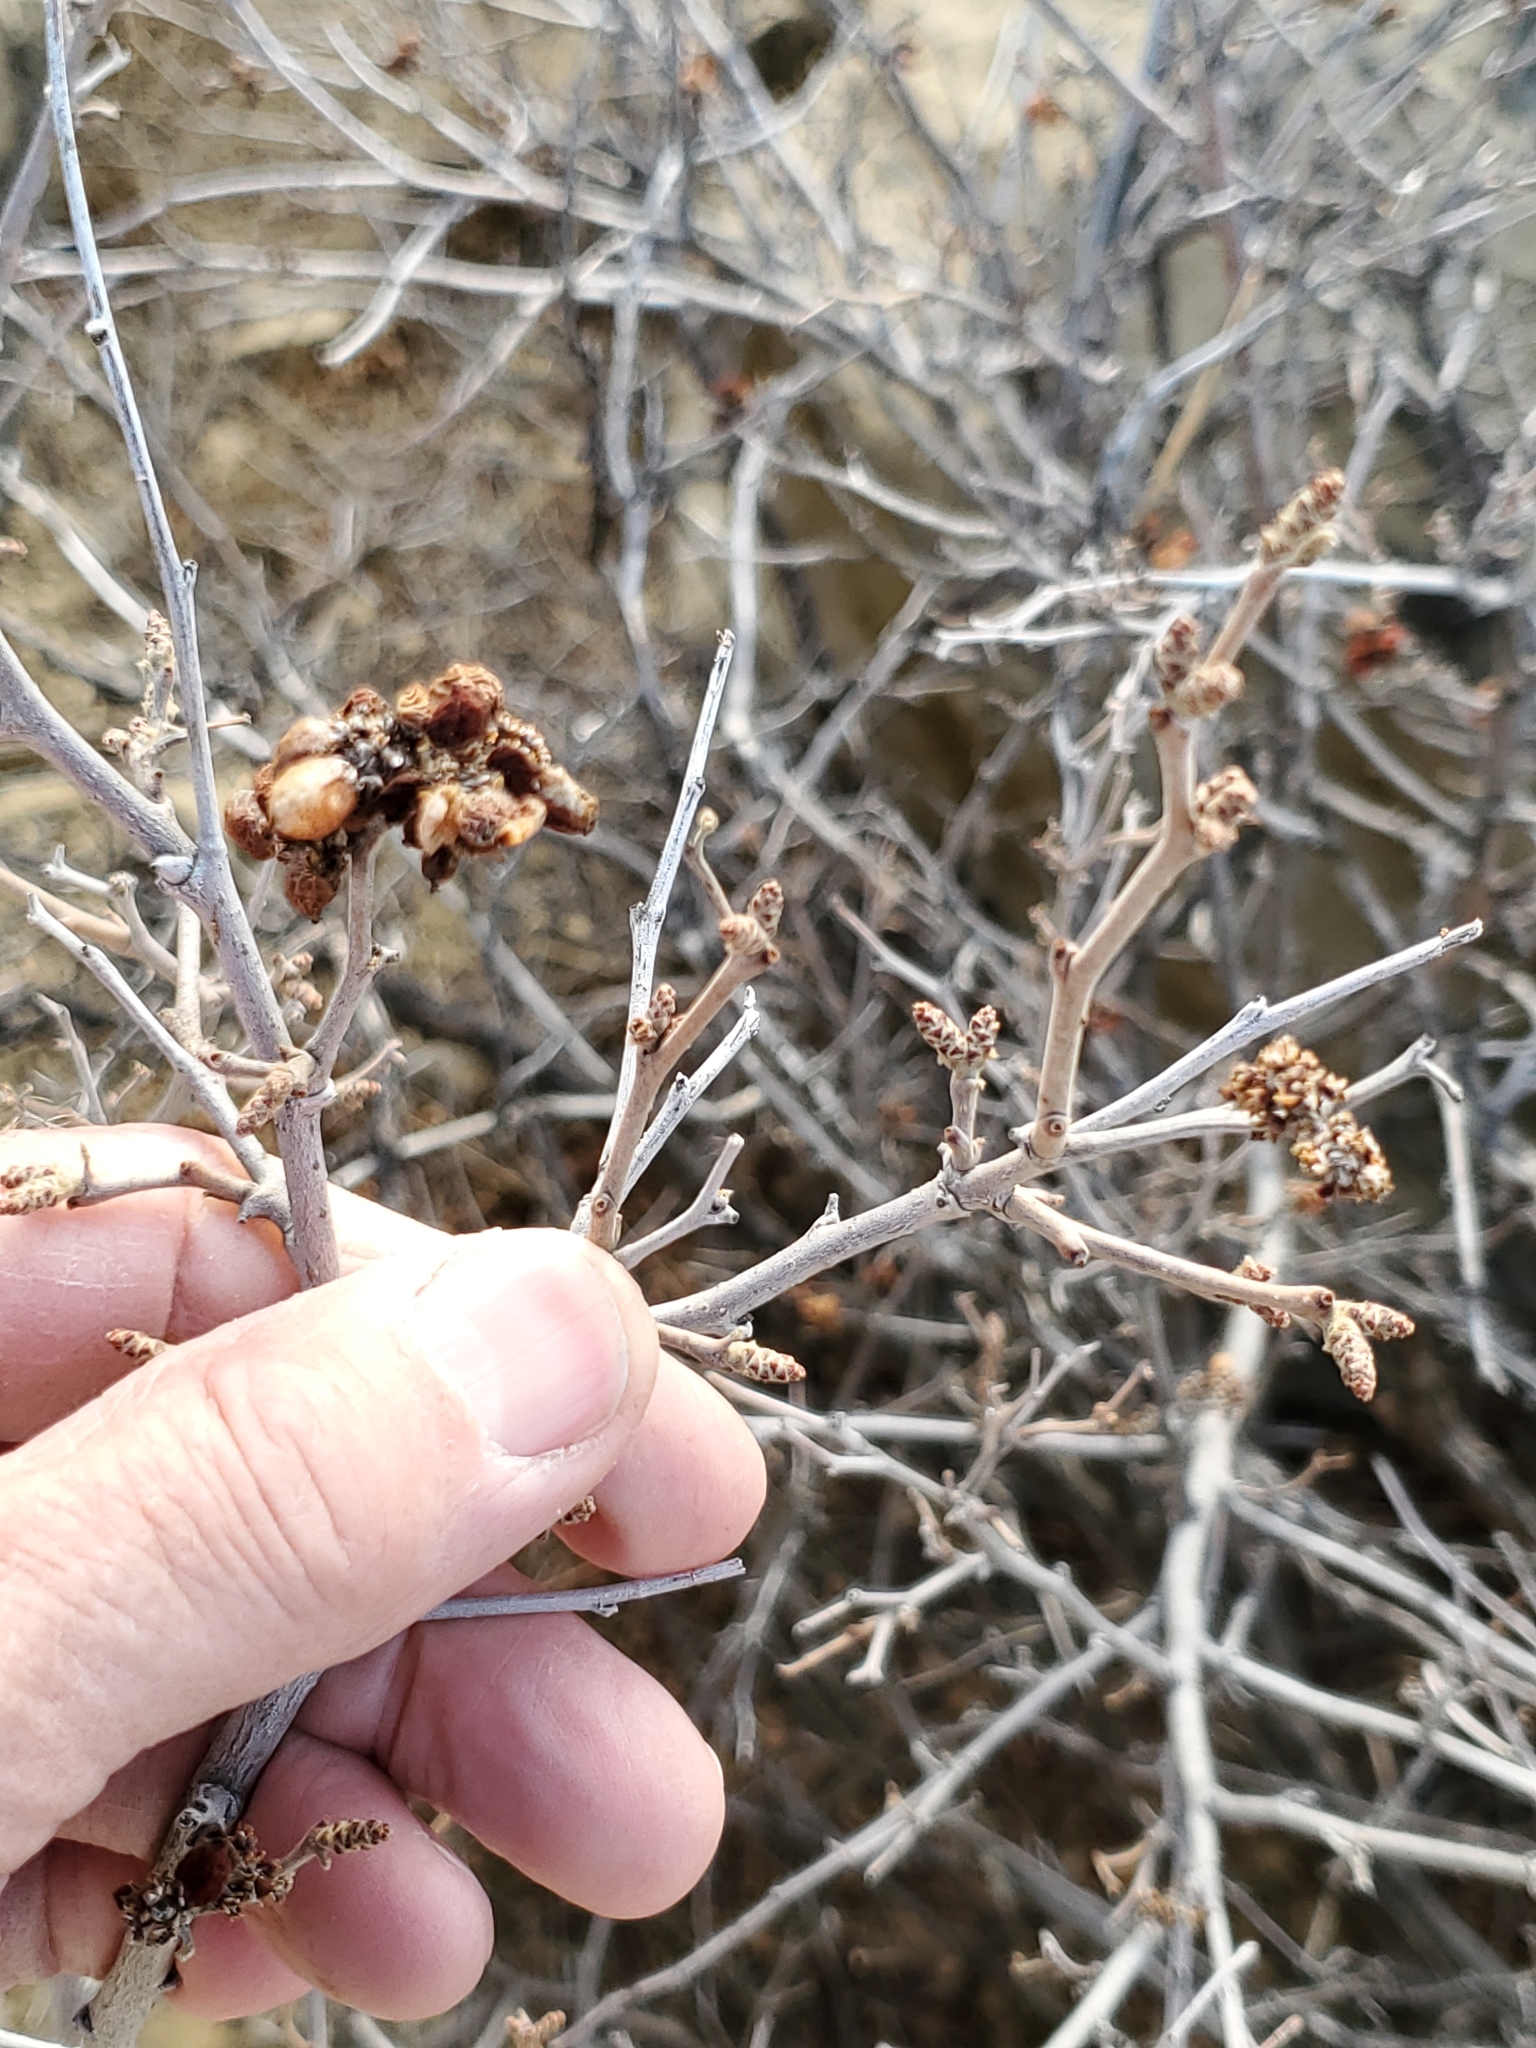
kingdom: Plantae
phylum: Tracheophyta
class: Magnoliopsida
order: Sapindales
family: Anacardiaceae
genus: Rhus
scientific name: Rhus aromatica
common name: Aromatic sumac
